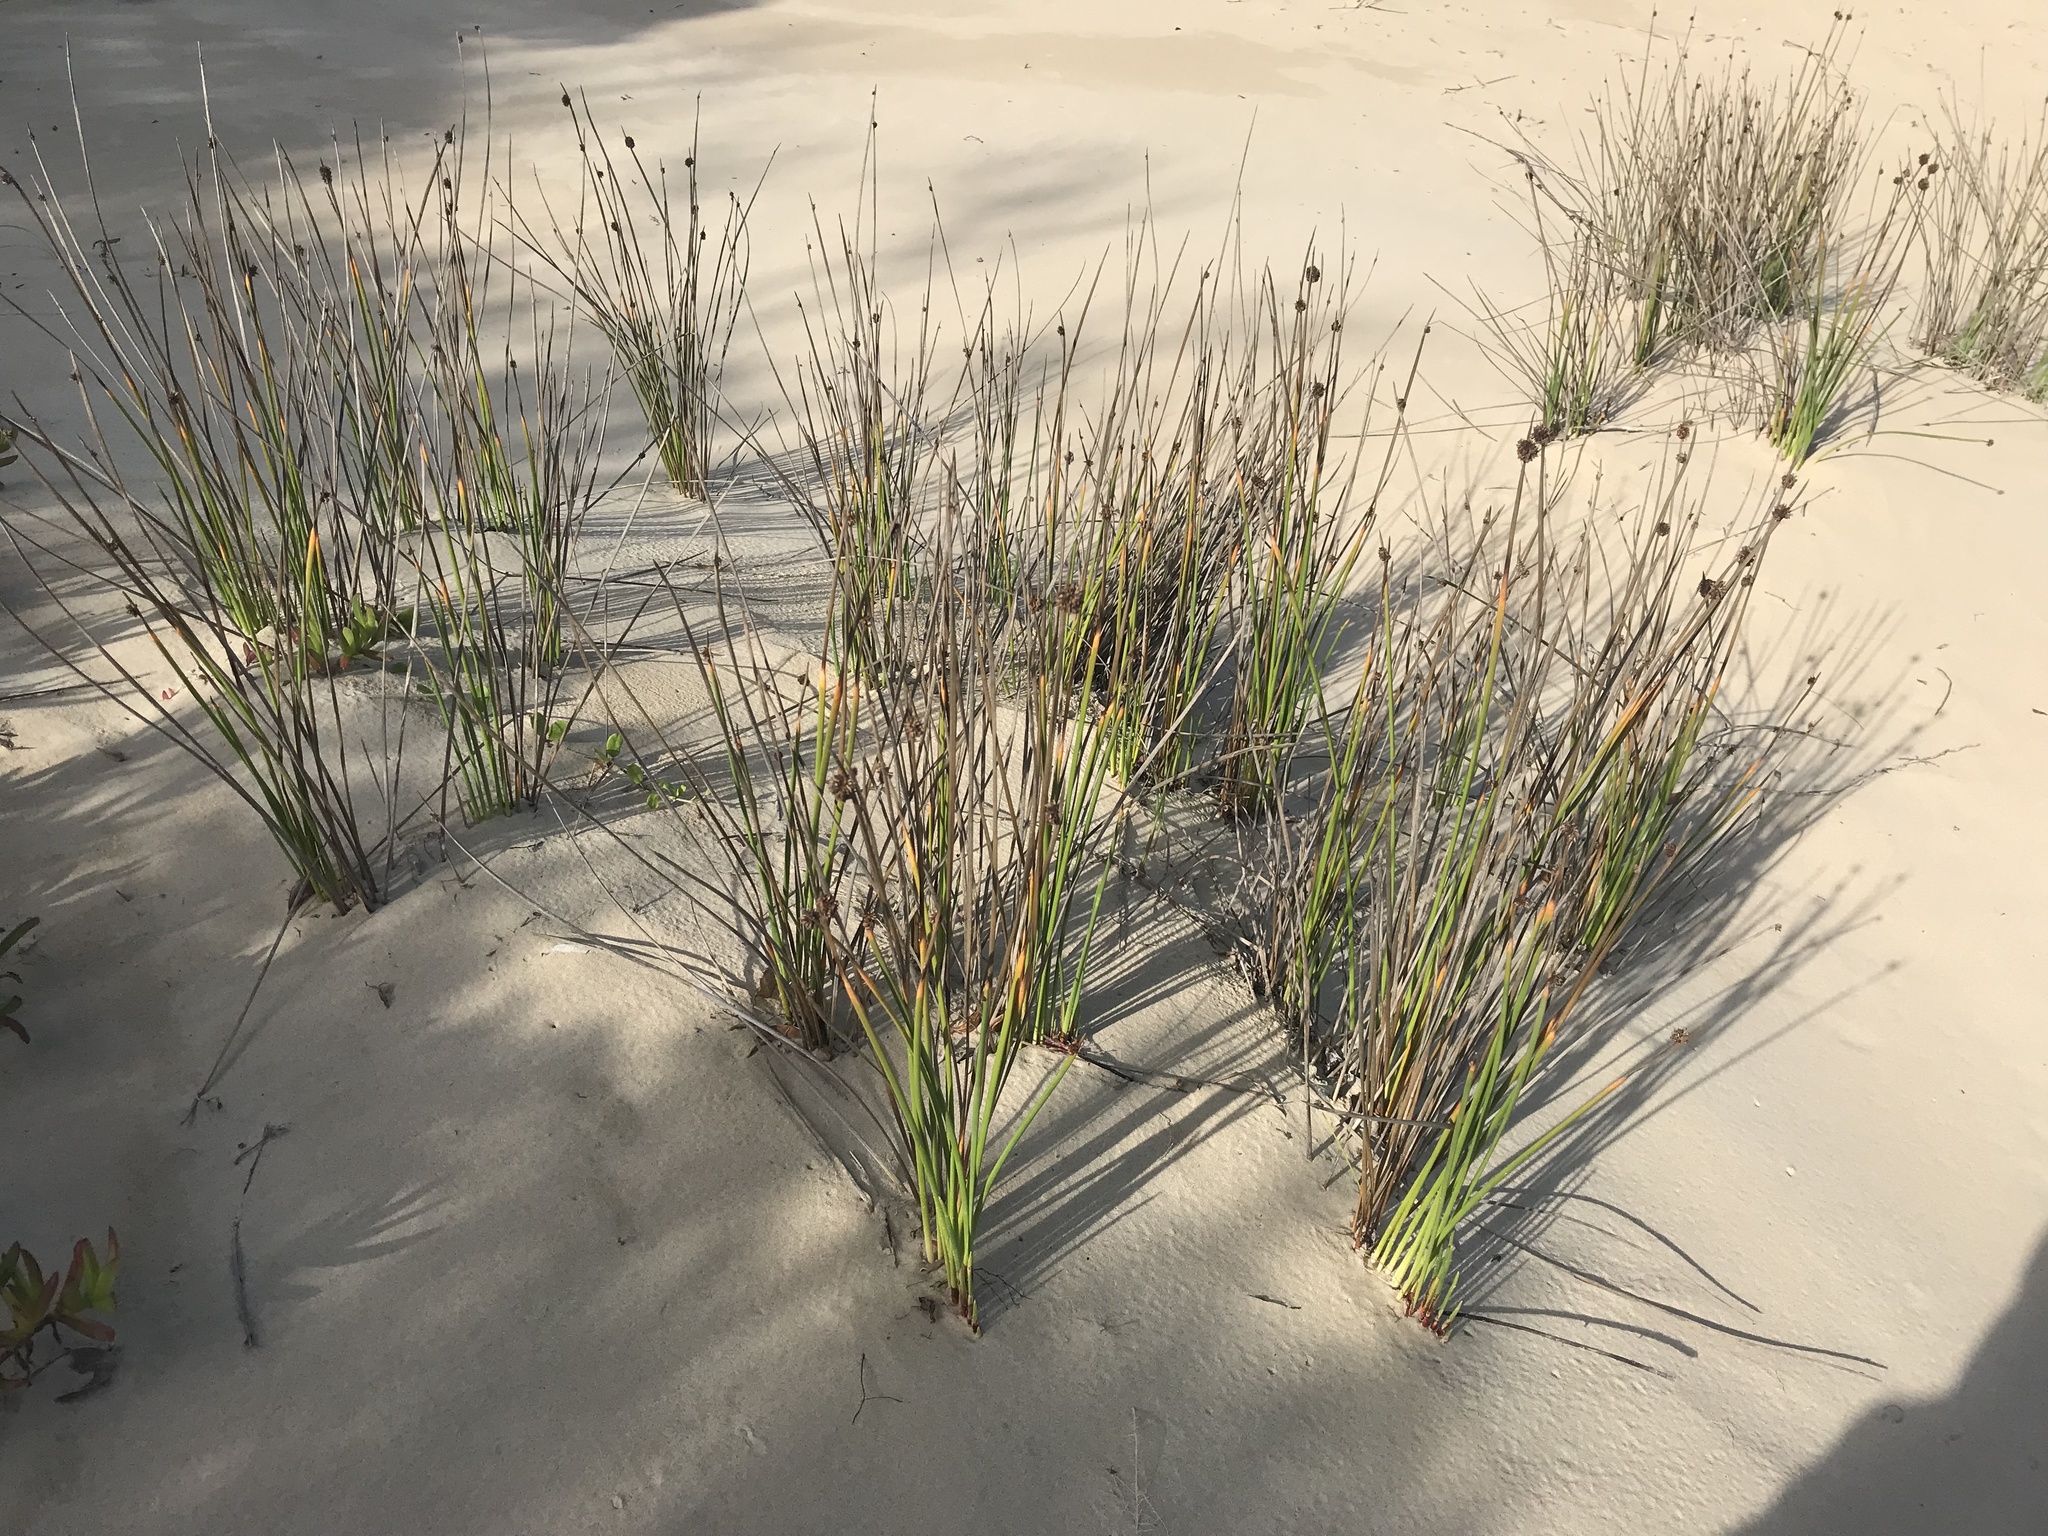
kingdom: Plantae
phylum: Tracheophyta
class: Liliopsida
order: Poales
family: Cyperaceae
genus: Ficinia
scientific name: Ficinia nodosa
